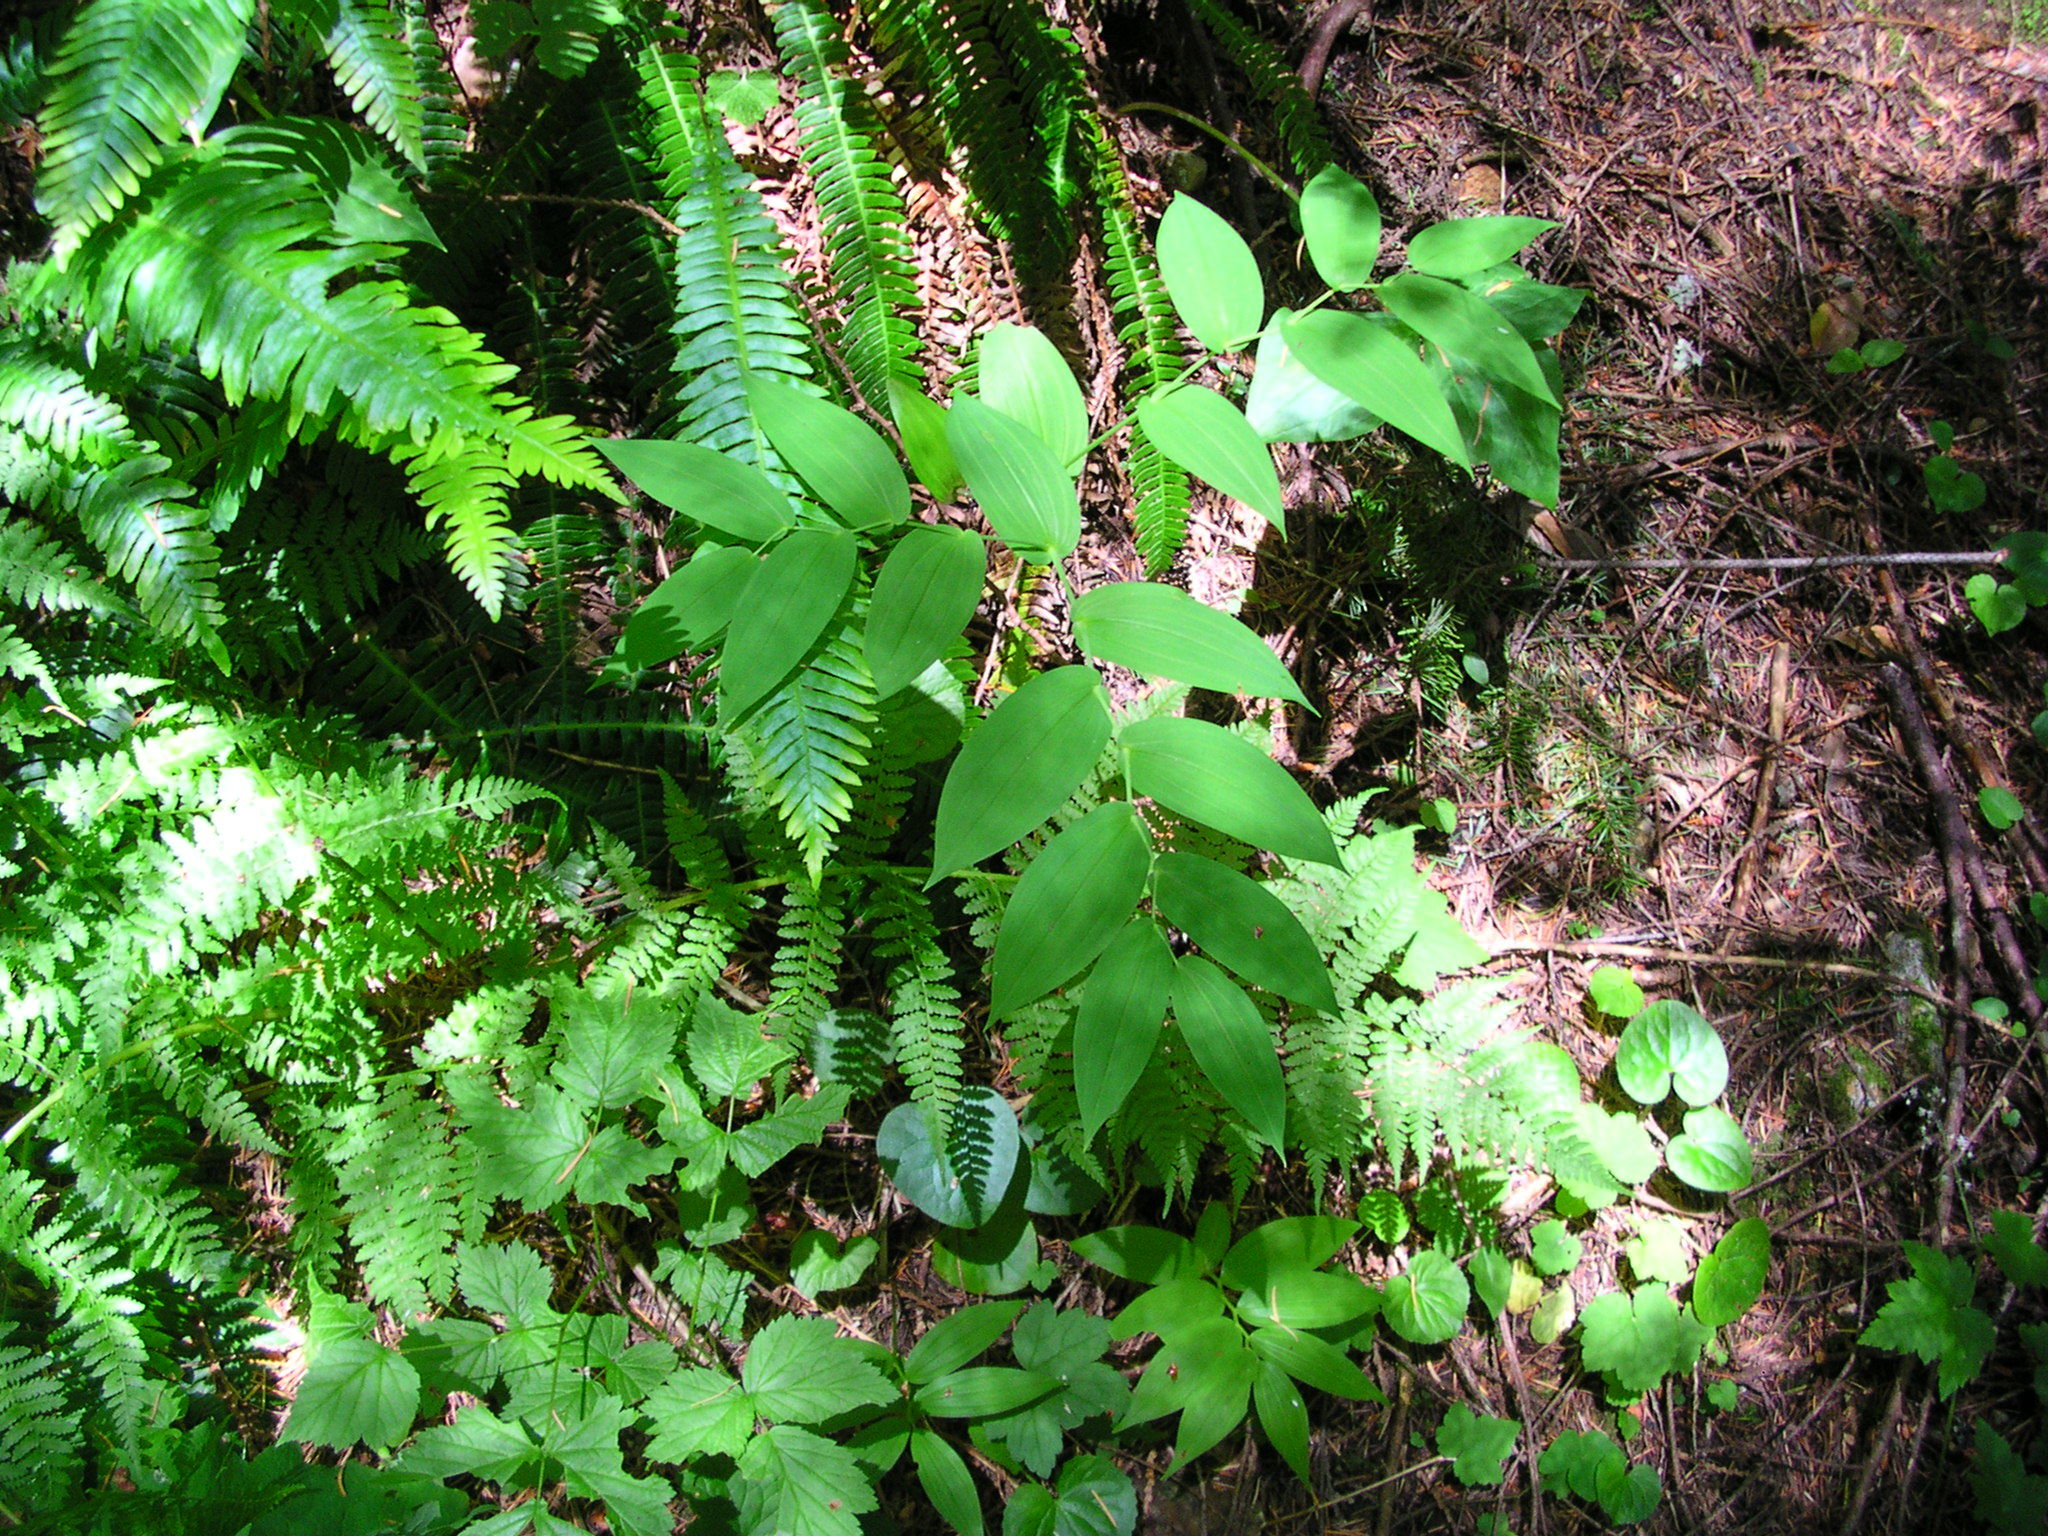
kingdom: Plantae
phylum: Tracheophyta
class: Liliopsida
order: Liliales
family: Liliaceae
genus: Streptopus
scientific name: Streptopus amplexifolius
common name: Clasp twisted stalk
